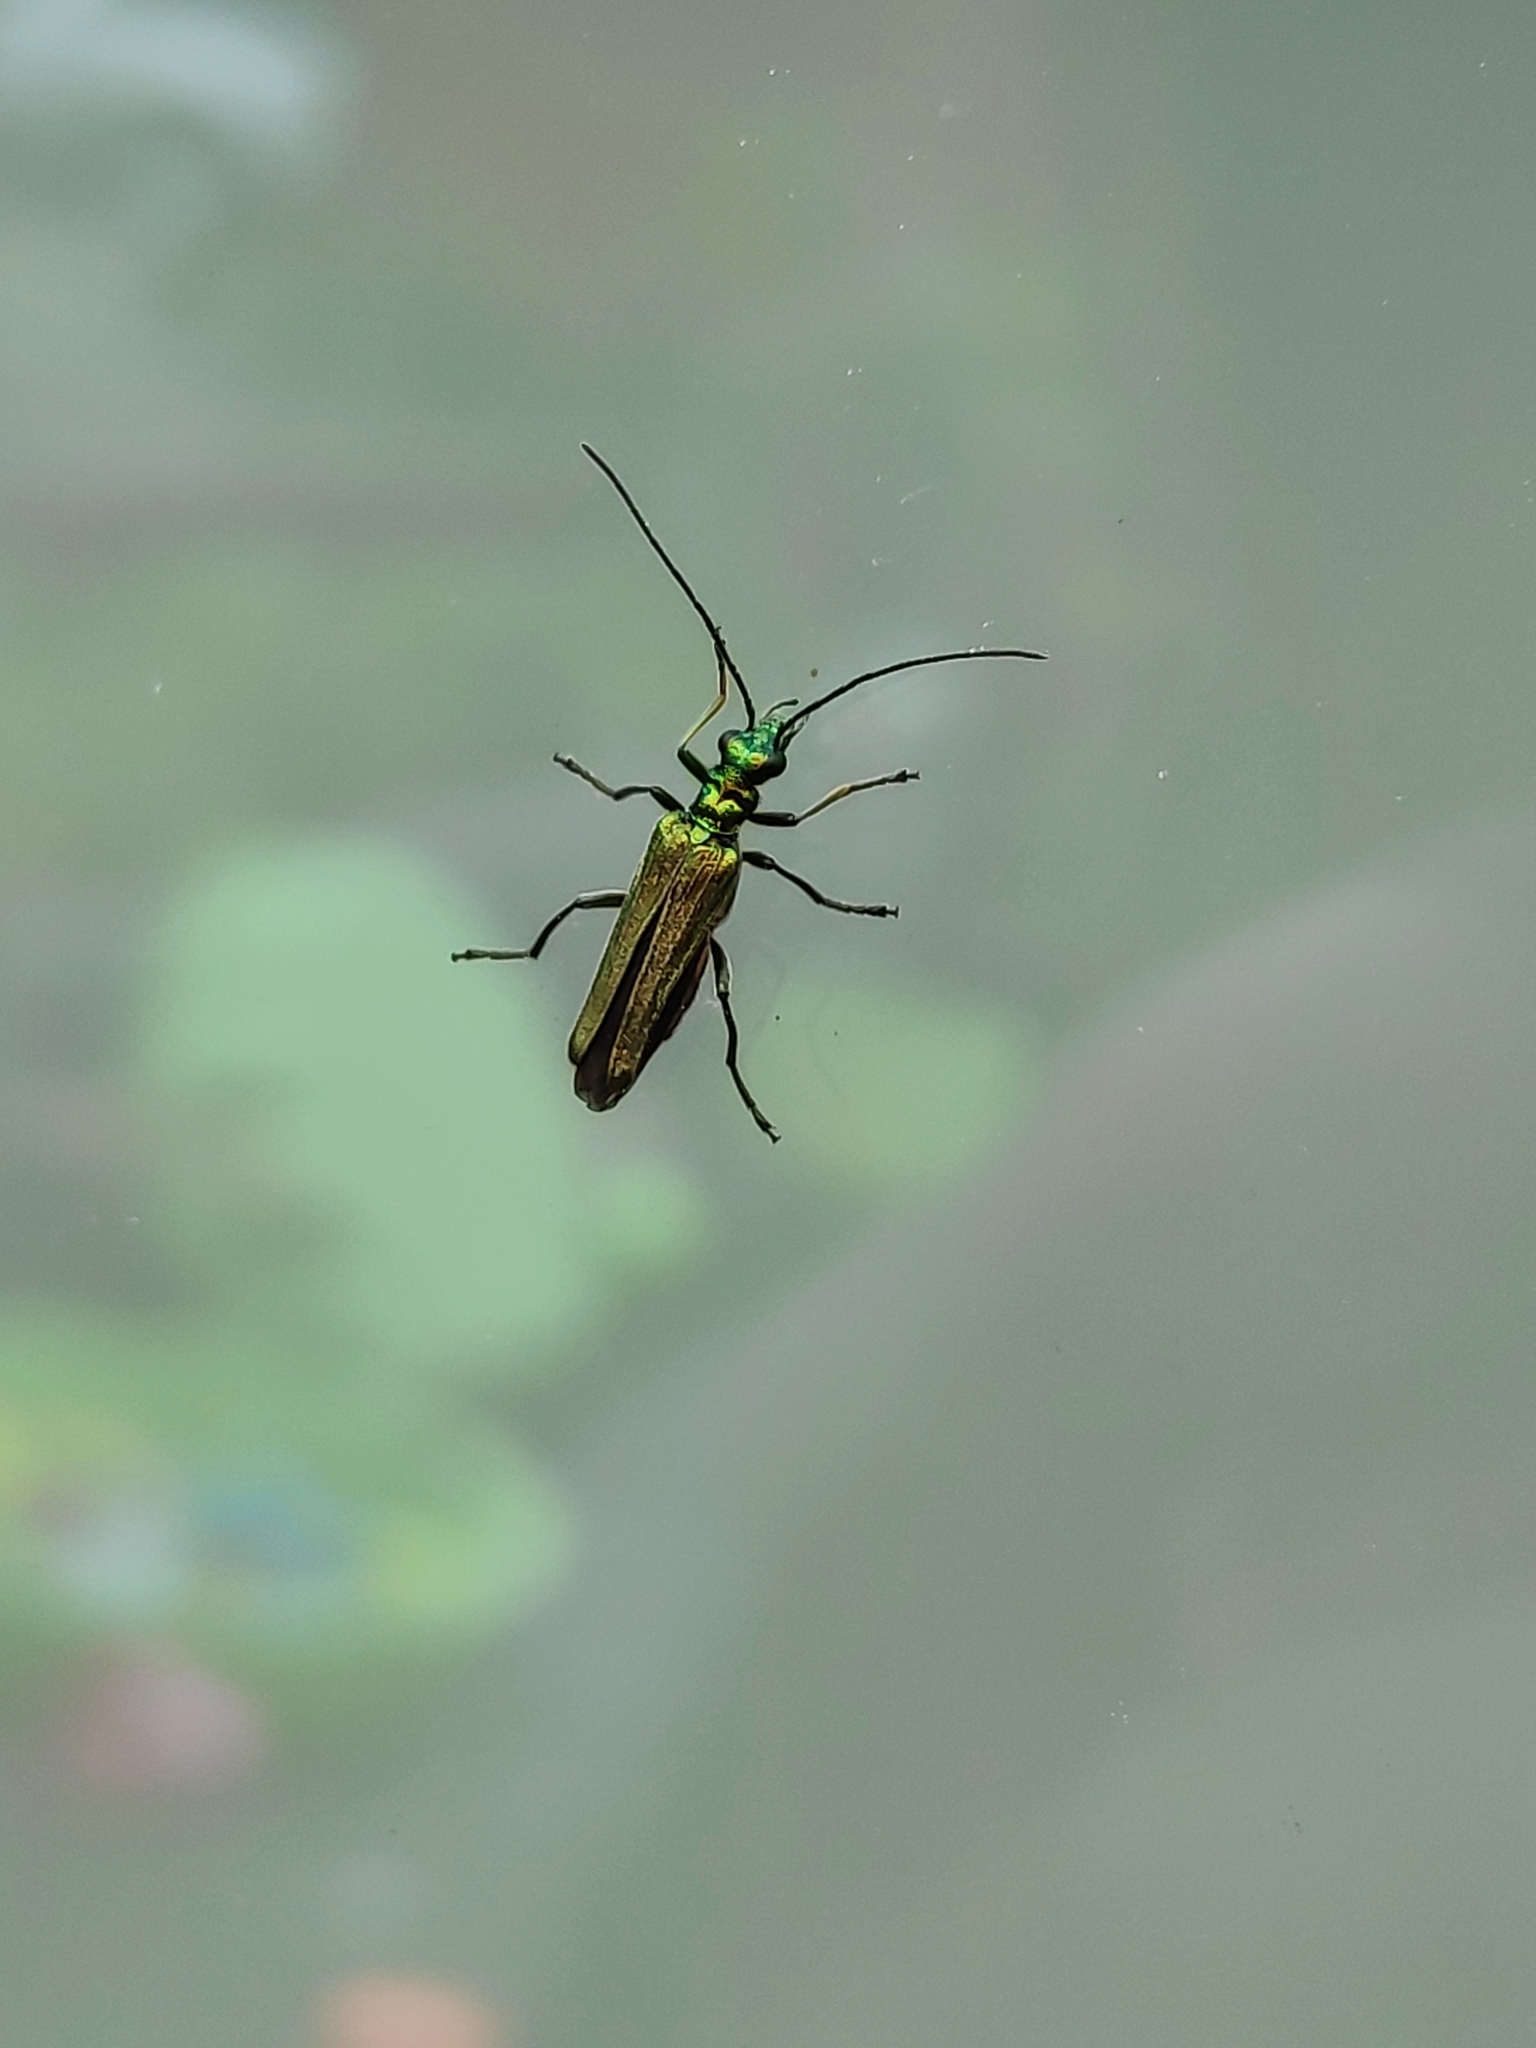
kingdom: Animalia
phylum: Arthropoda
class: Insecta
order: Coleoptera
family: Oedemeridae
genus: Oedemera
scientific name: Oedemera nobilis
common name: Swollen-thighed beetle
